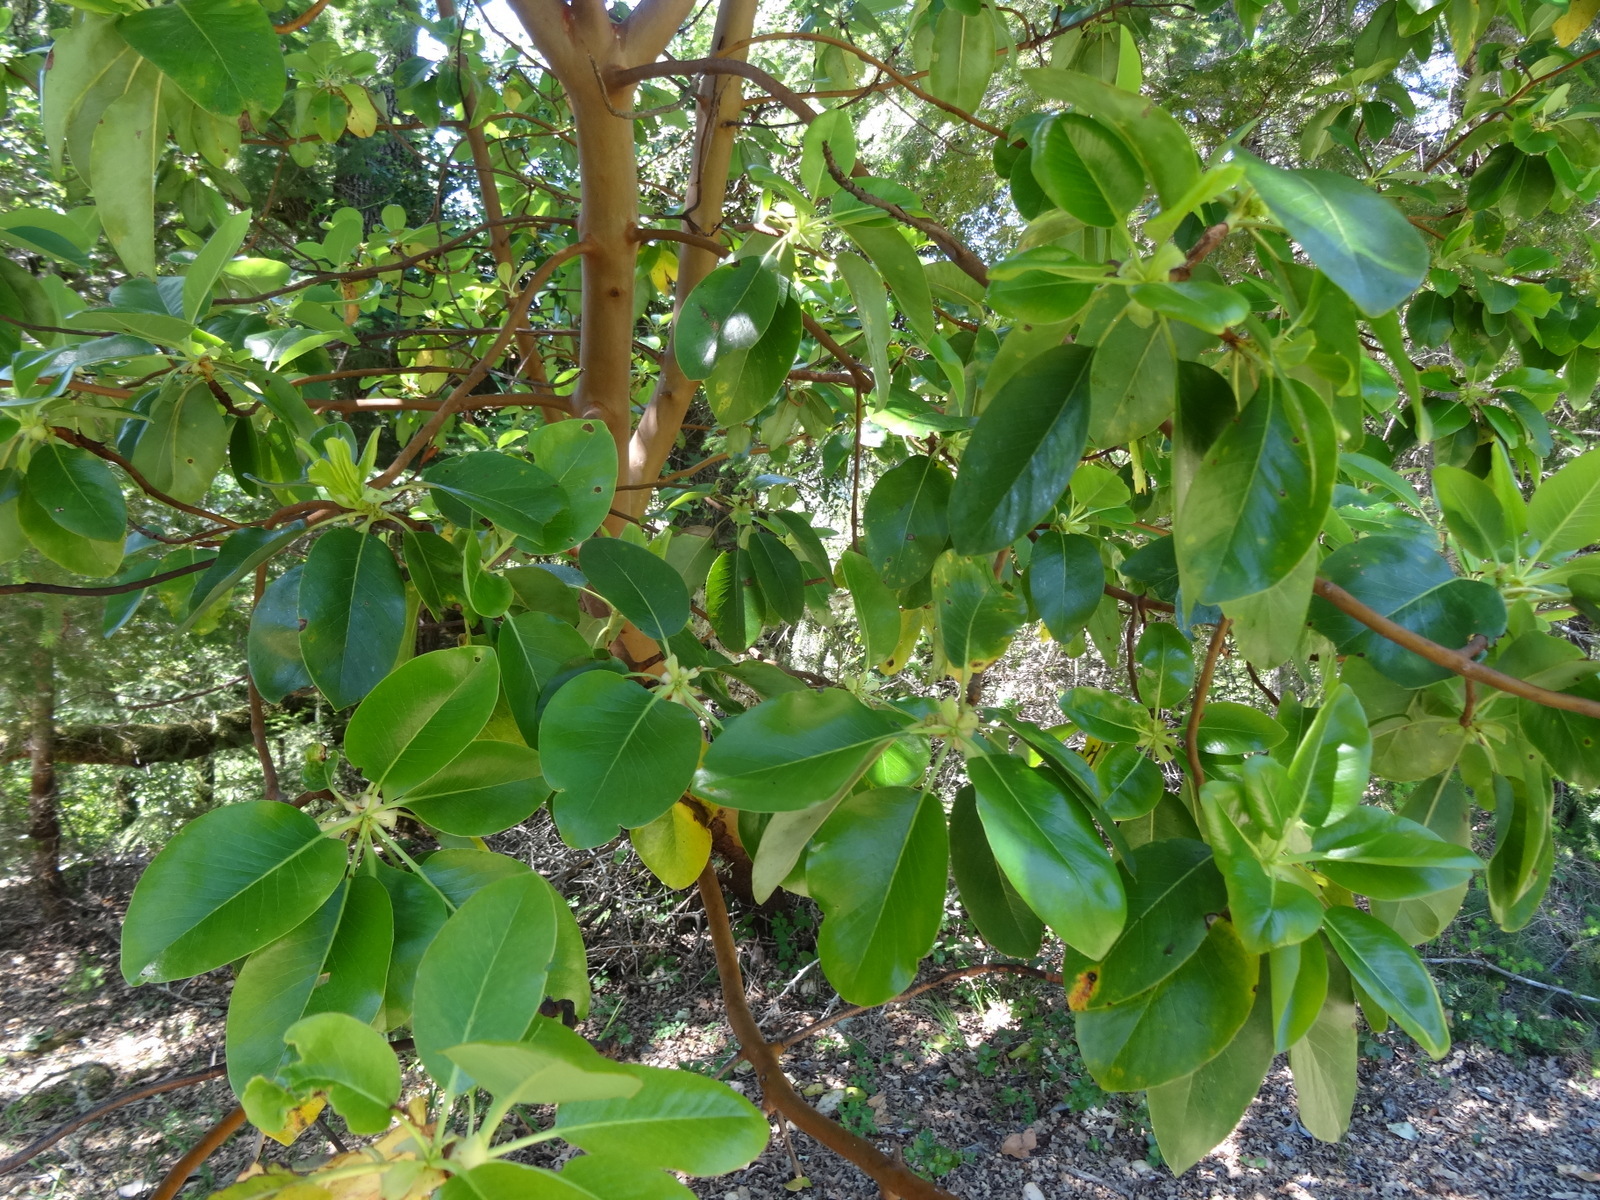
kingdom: Plantae
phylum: Tracheophyta
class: Magnoliopsida
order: Ericales
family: Ericaceae
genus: Arbutus
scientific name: Arbutus menziesii
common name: Pacific madrone
